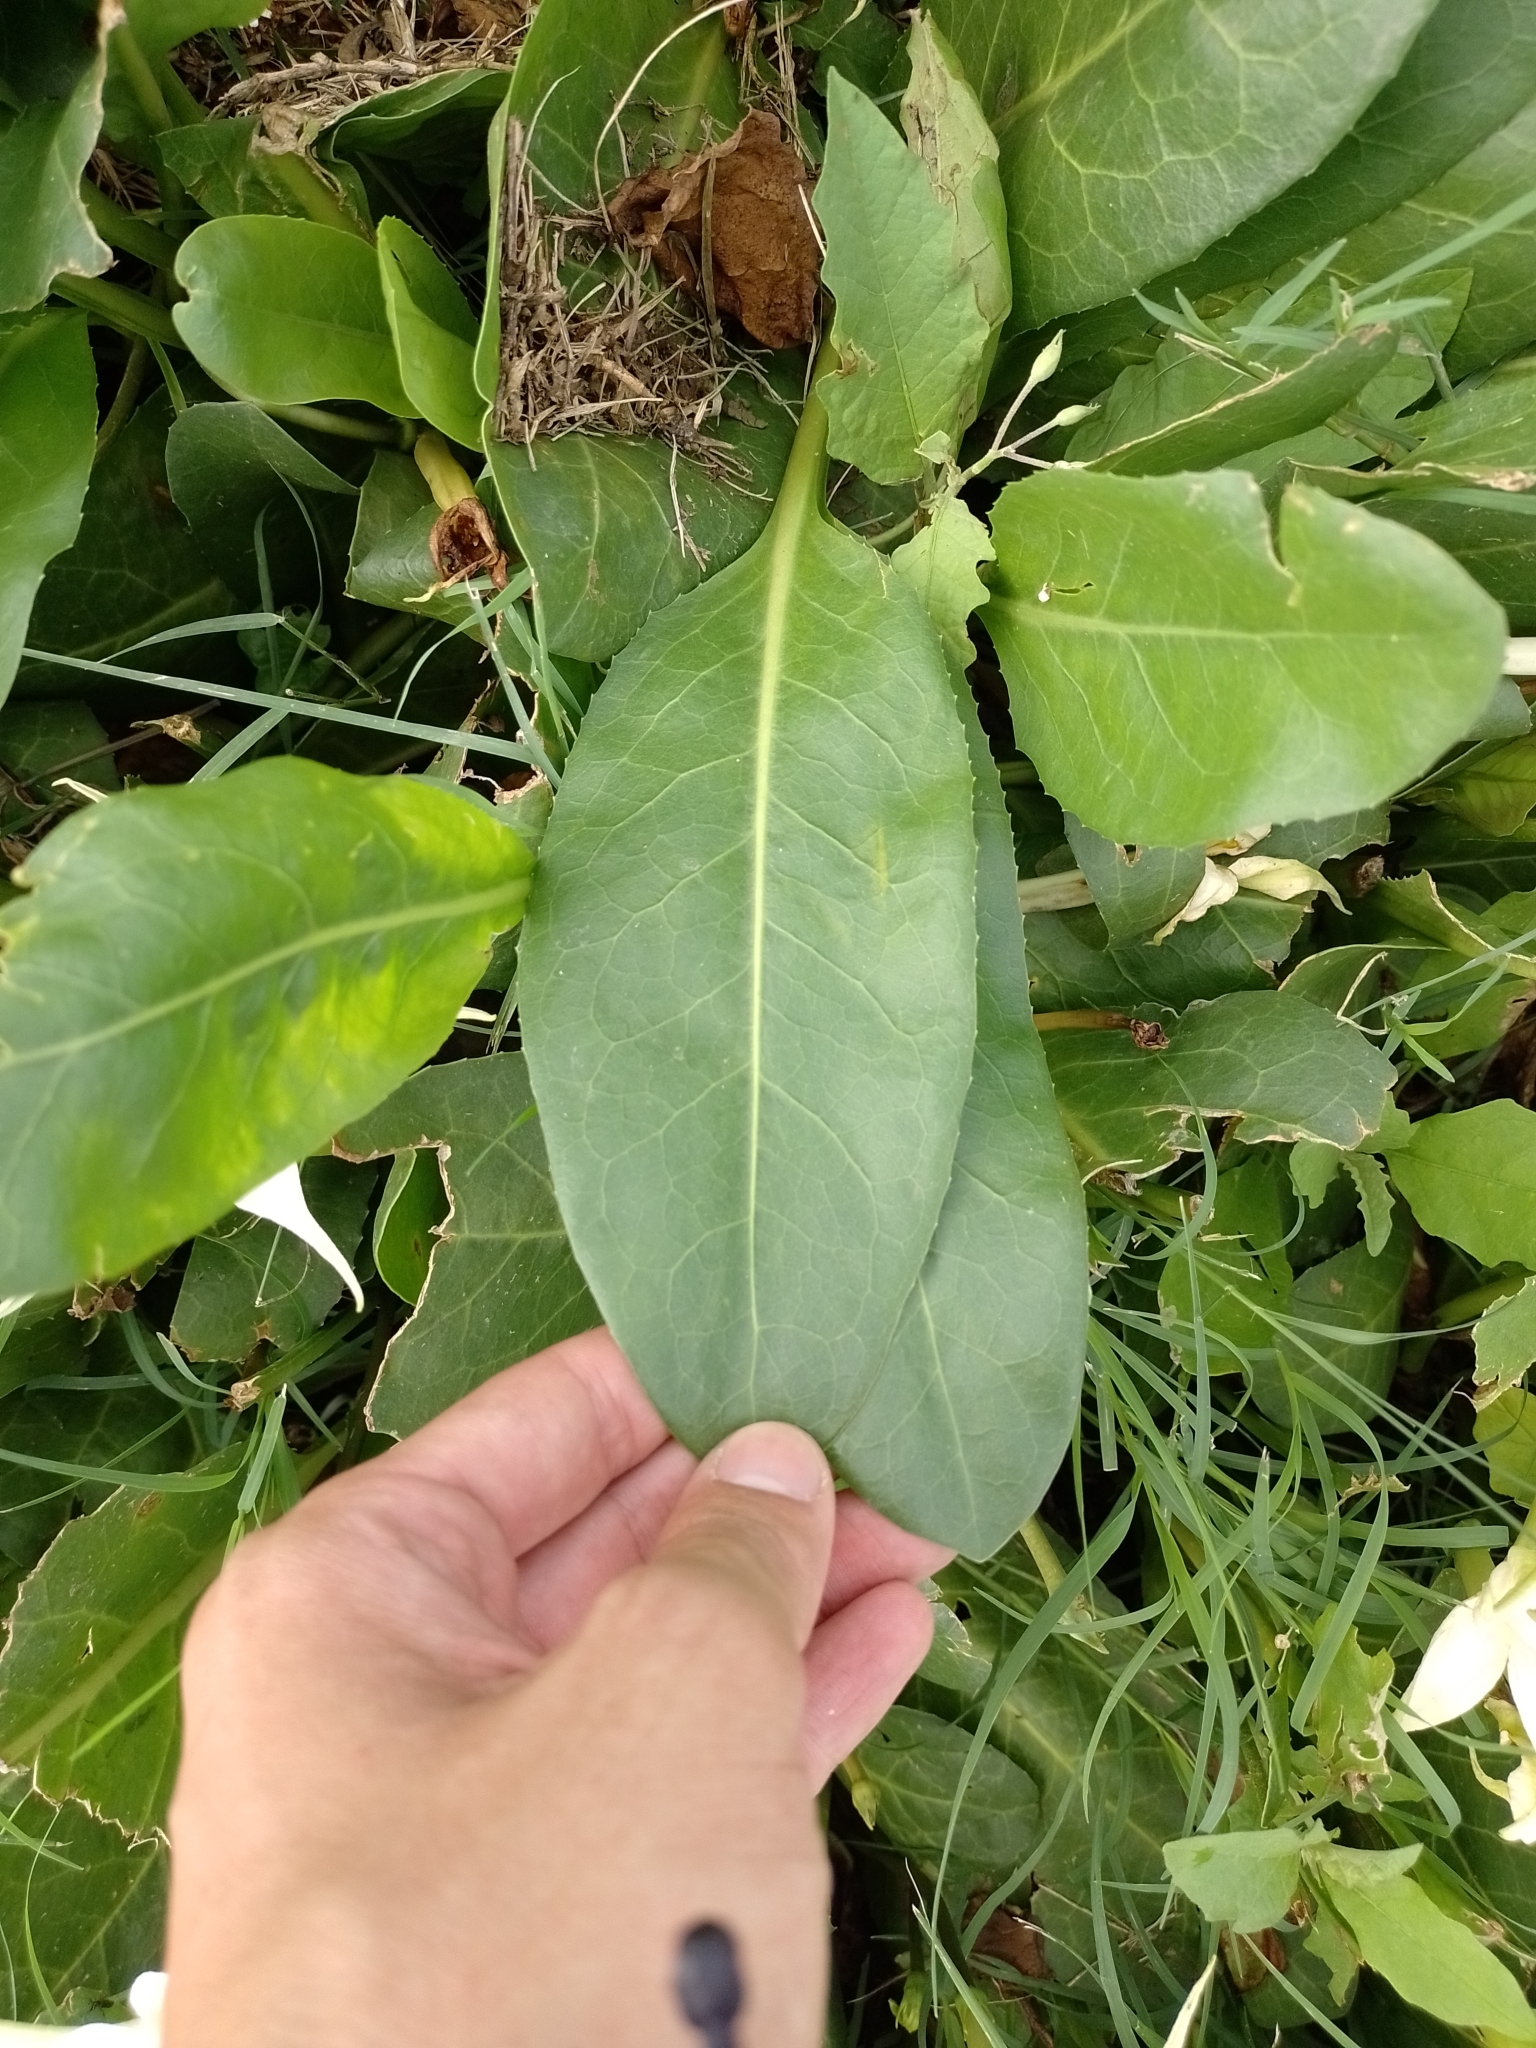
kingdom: Plantae
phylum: Tracheophyta
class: Magnoliopsida
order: Solanales
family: Solanaceae
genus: Jaborosa
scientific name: Jaborosa integrifolia
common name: Springblossom
